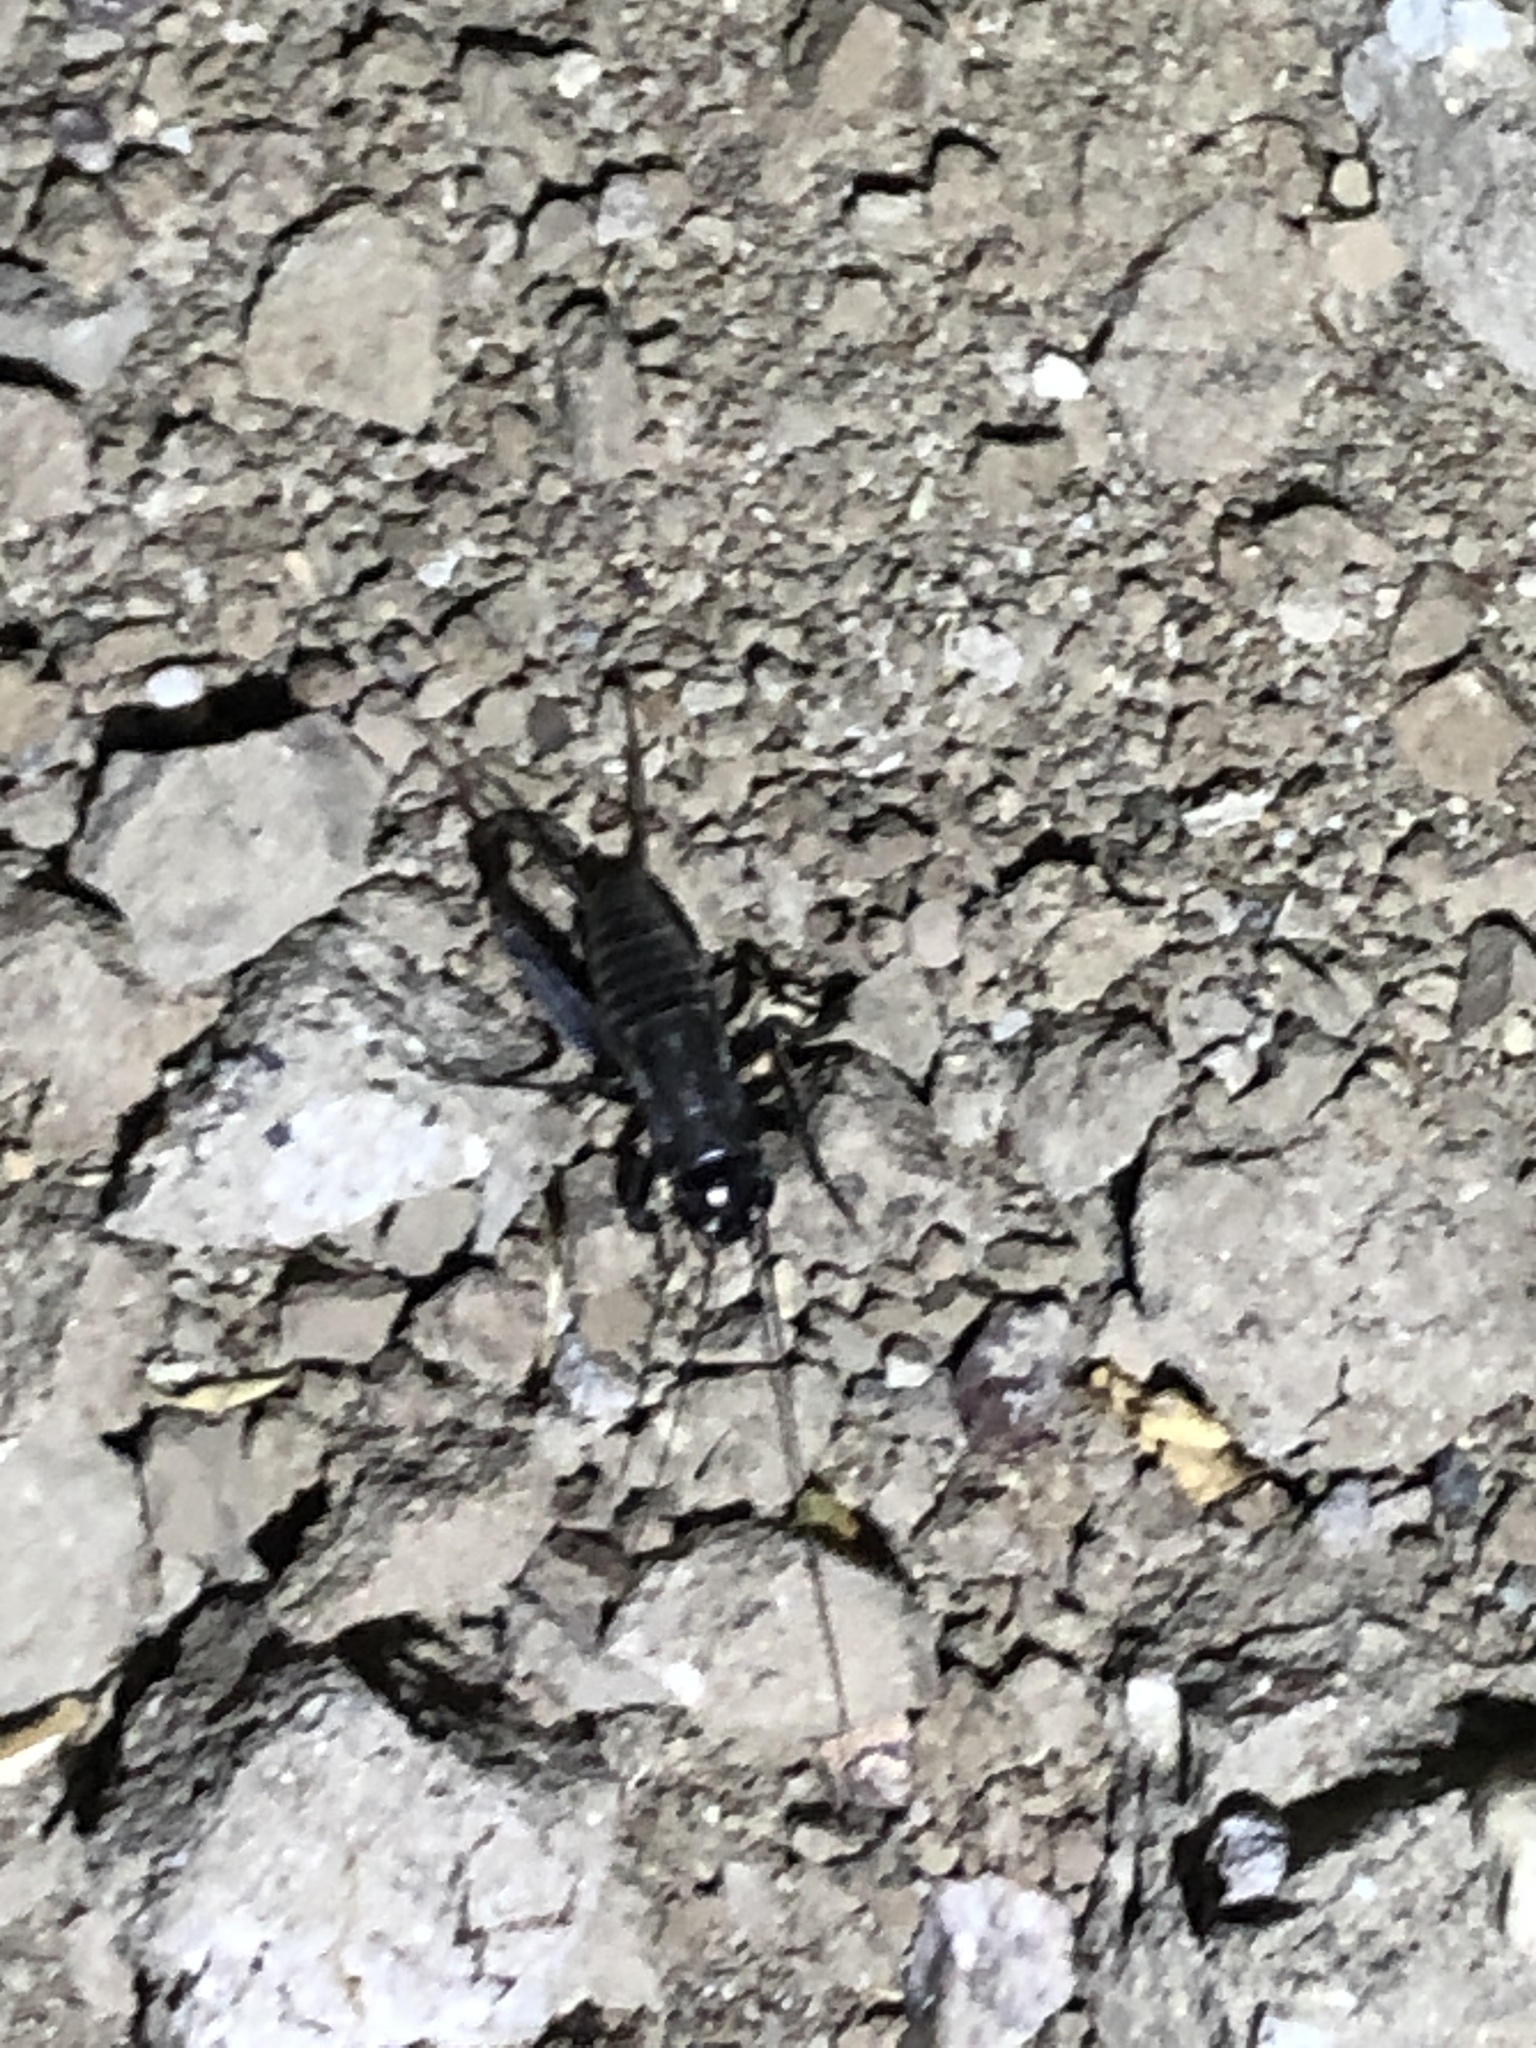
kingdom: Animalia
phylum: Arthropoda
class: Insecta
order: Orthoptera
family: Gryllidae
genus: Gryllus
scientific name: Gryllus
